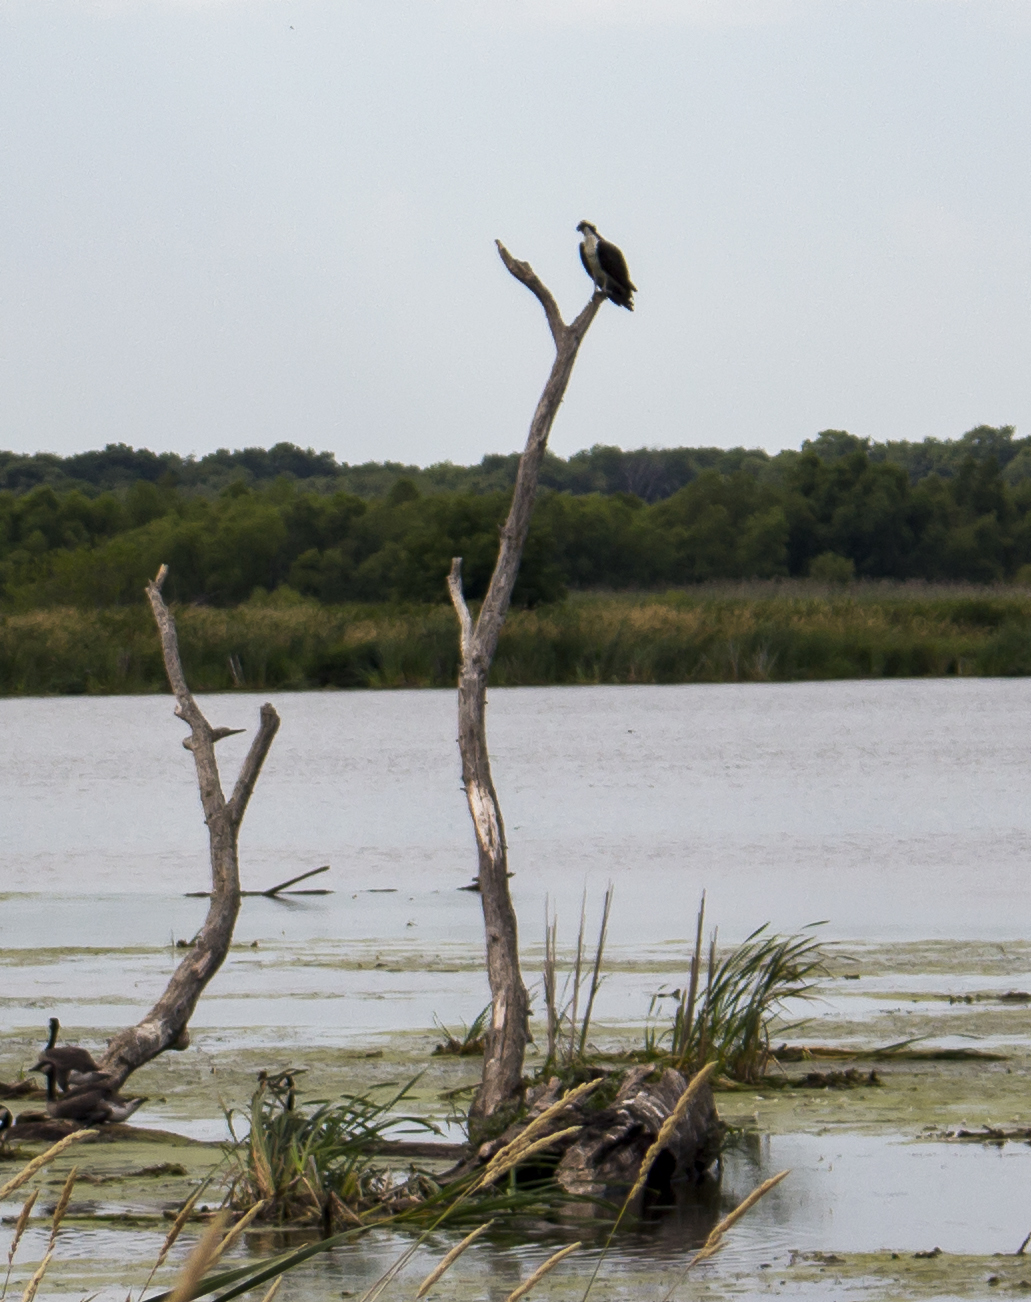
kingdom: Animalia
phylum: Chordata
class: Aves
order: Accipitriformes
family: Pandionidae
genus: Pandion
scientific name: Pandion haliaetus
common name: Osprey
